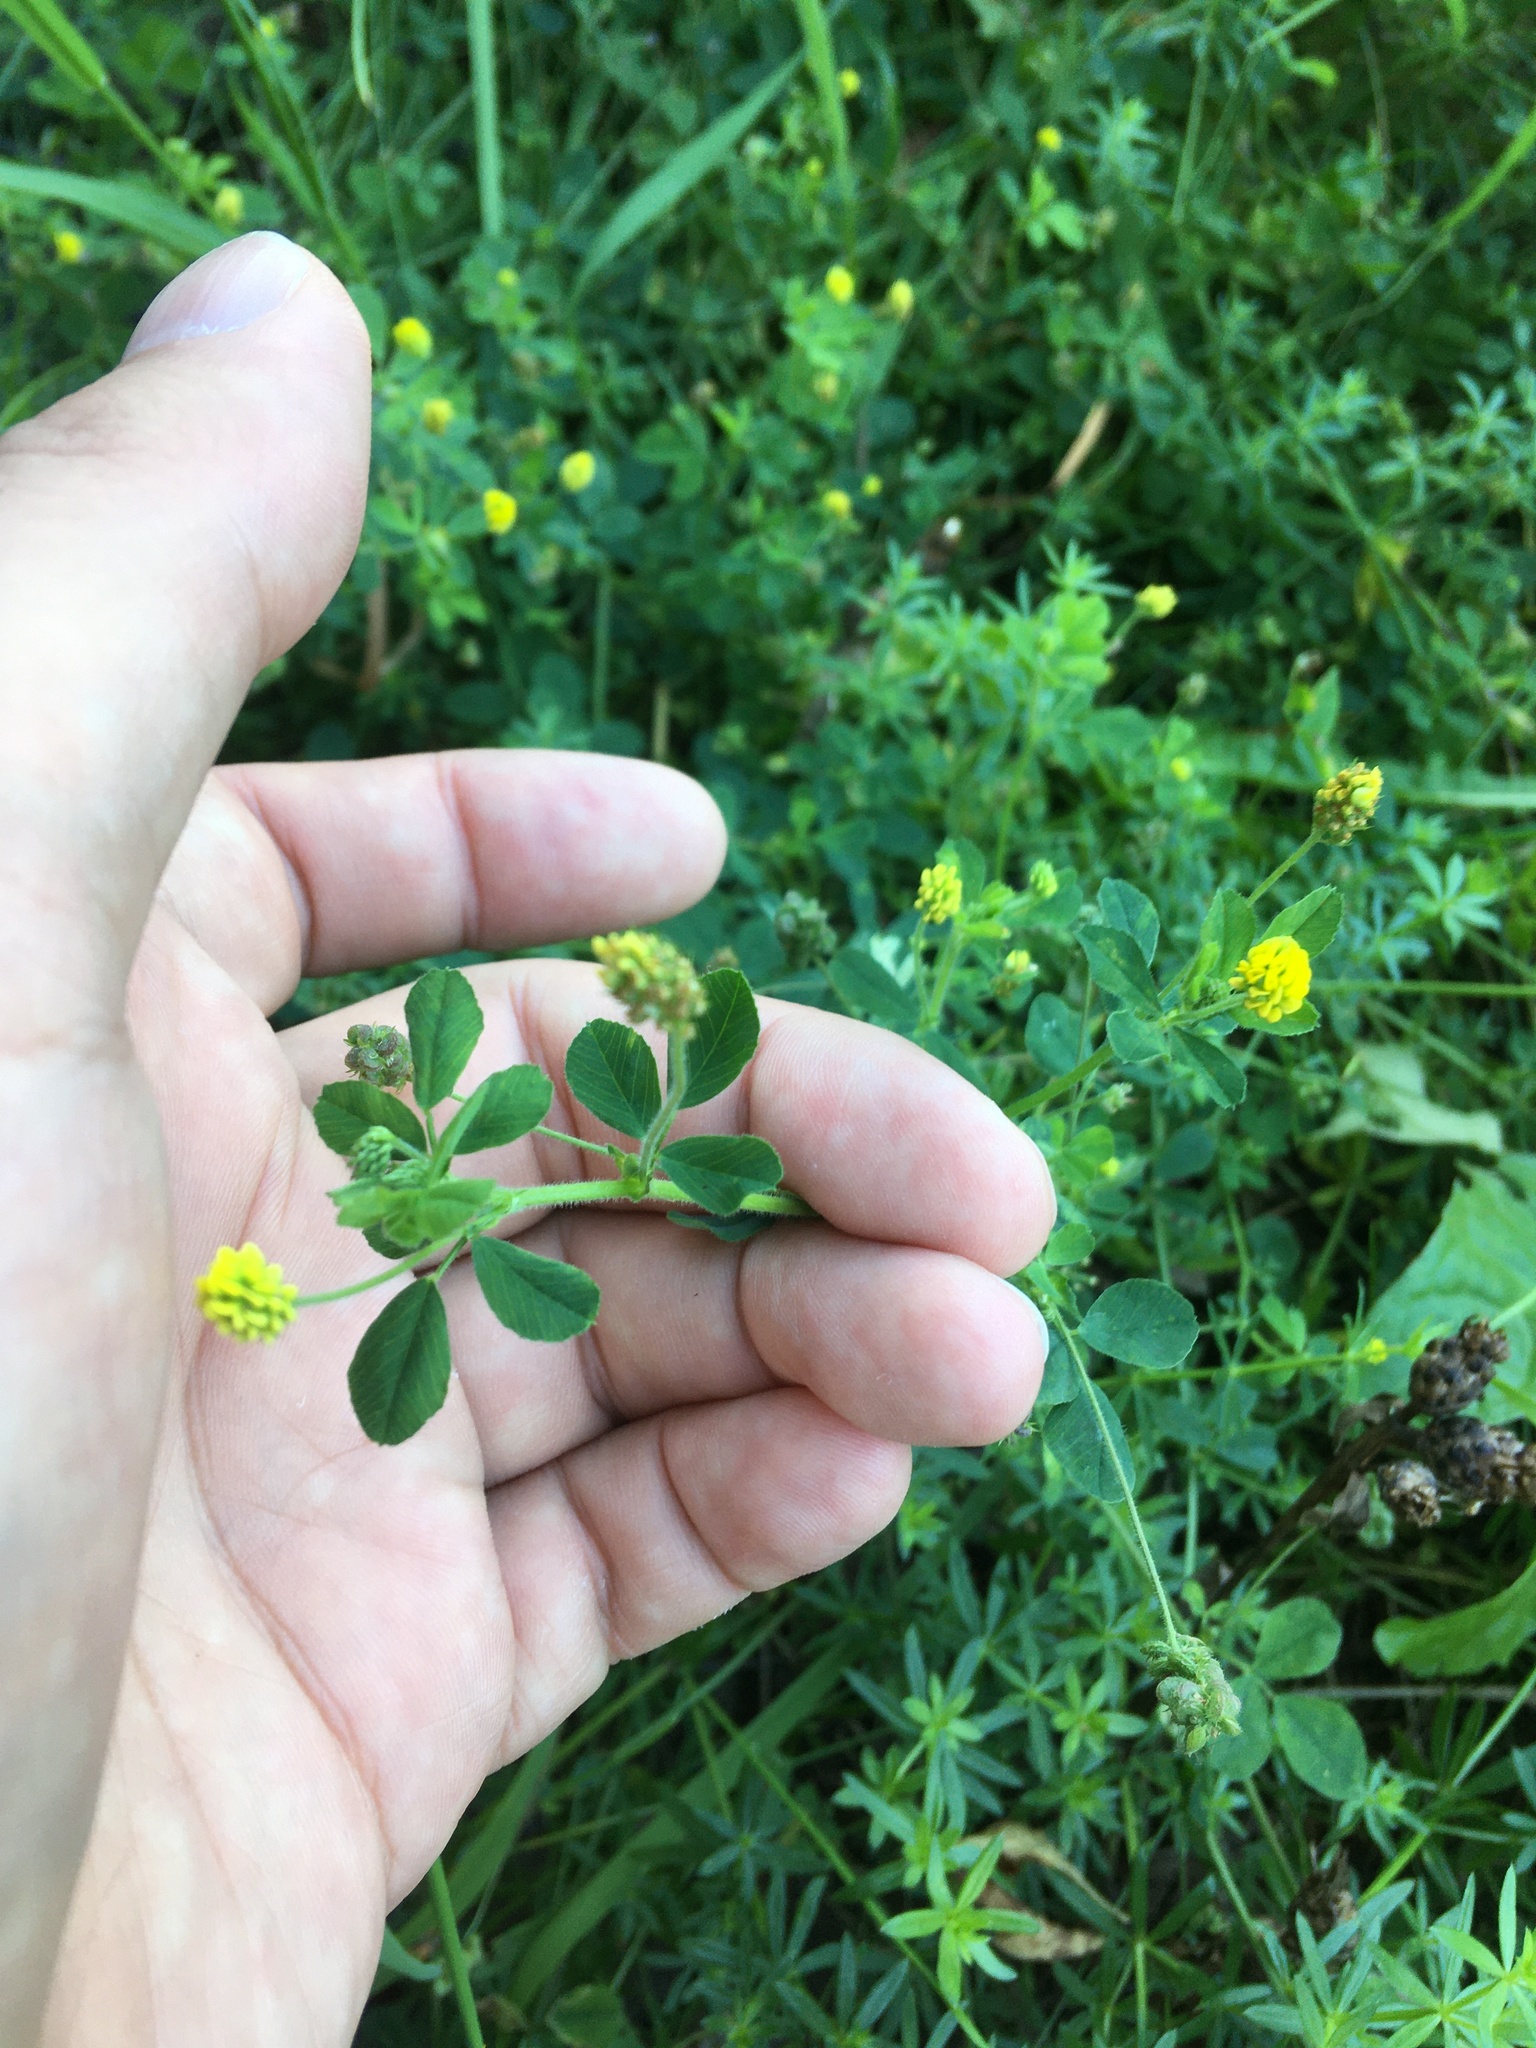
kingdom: Plantae
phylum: Tracheophyta
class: Magnoliopsida
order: Fabales
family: Fabaceae
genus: Medicago
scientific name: Medicago lupulina
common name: Black medick
